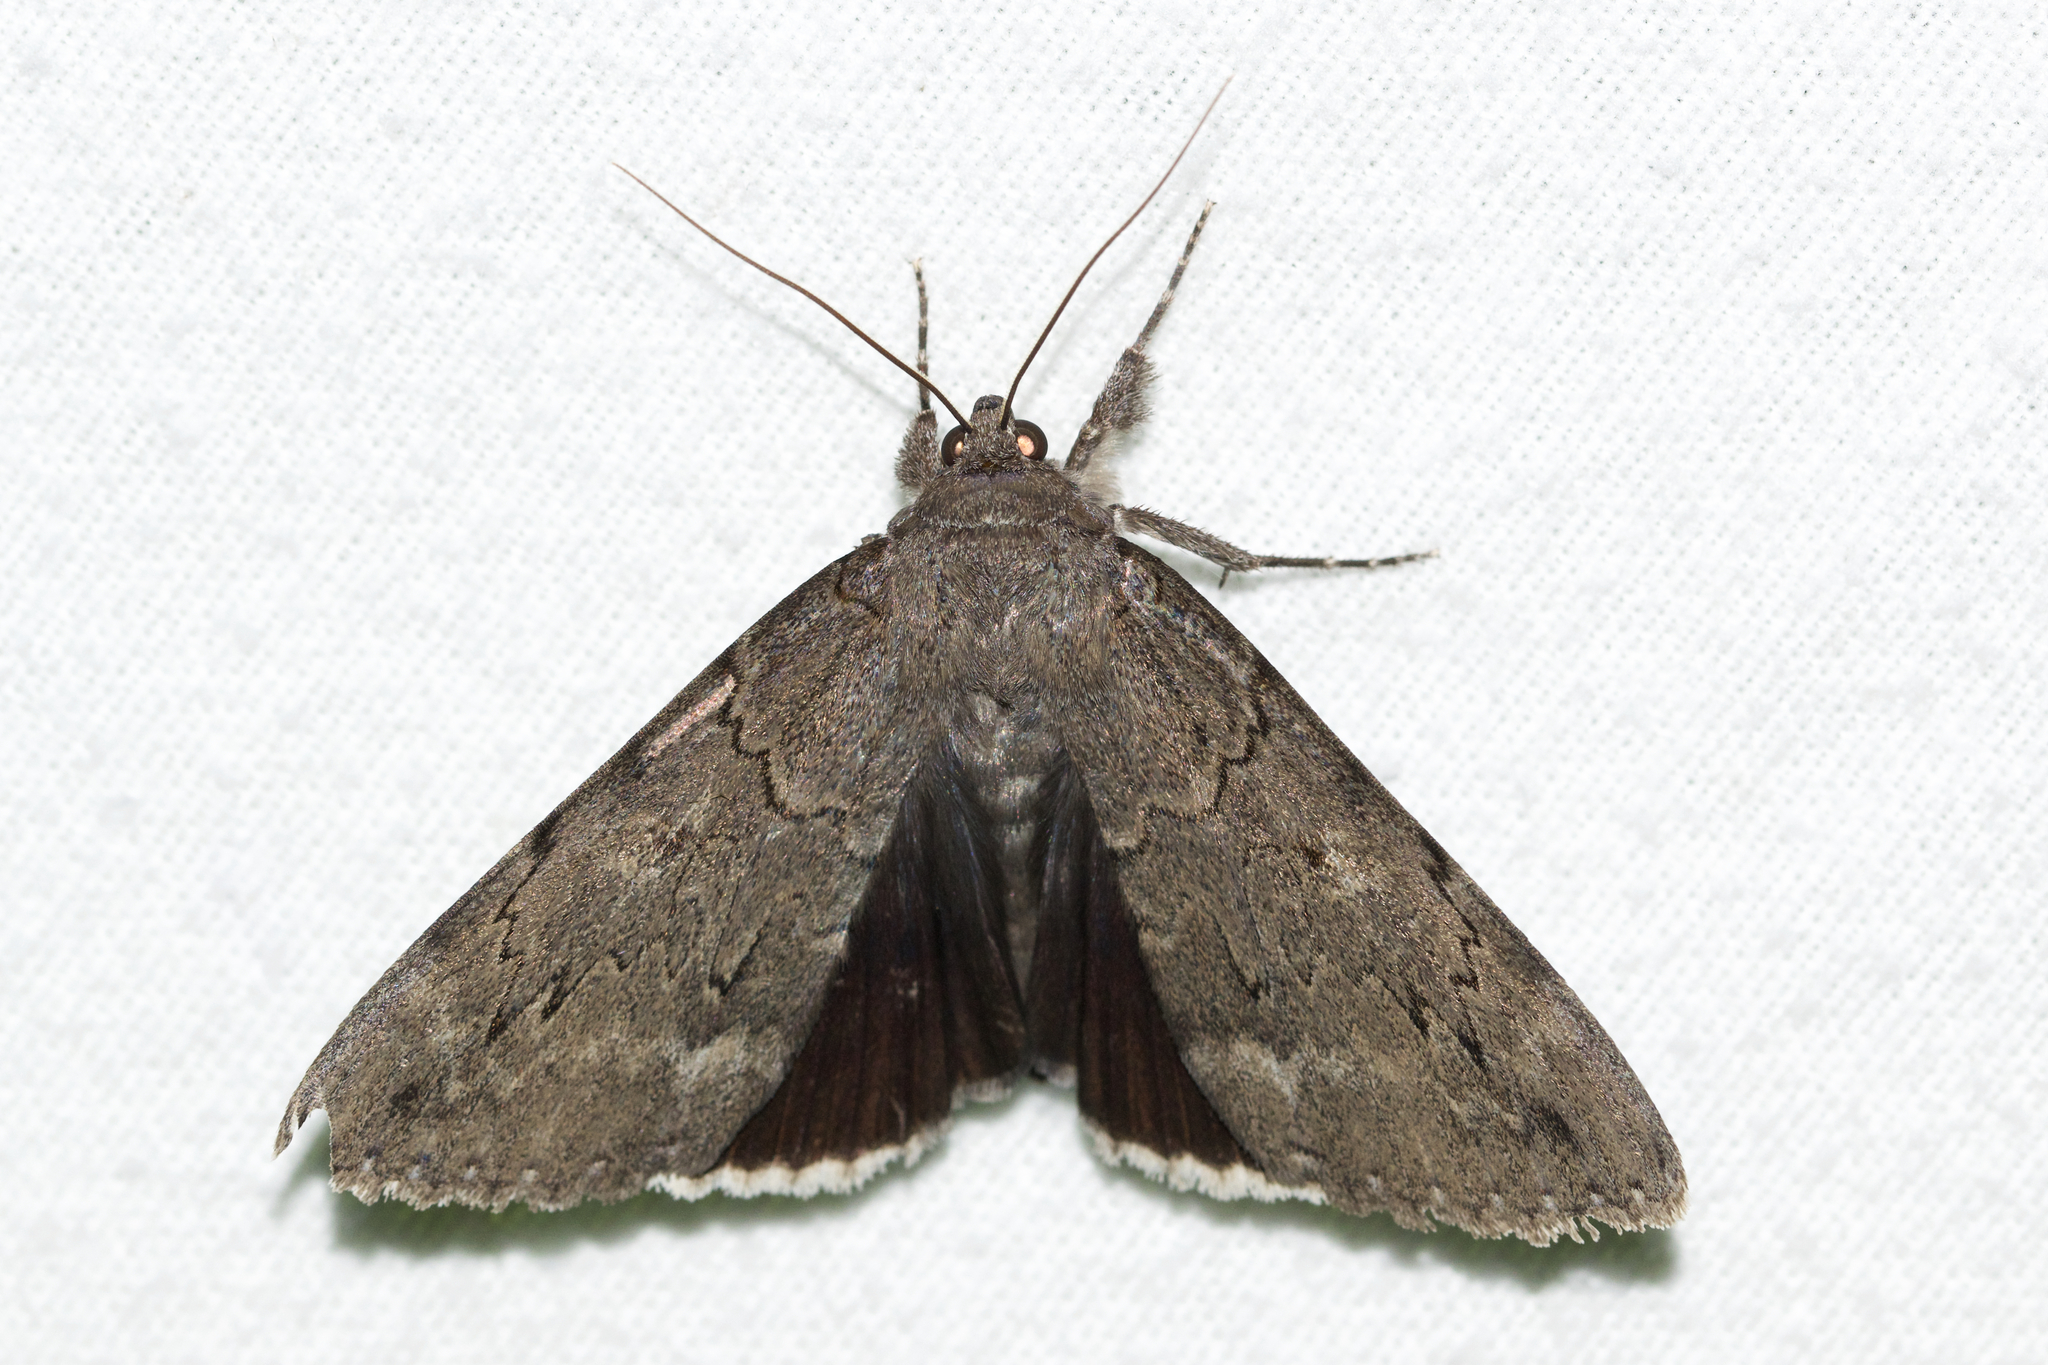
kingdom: Animalia
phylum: Arthropoda
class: Insecta
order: Lepidoptera
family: Erebidae
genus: Catocala
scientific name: Catocala obscura
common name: Obscure underwing moth
